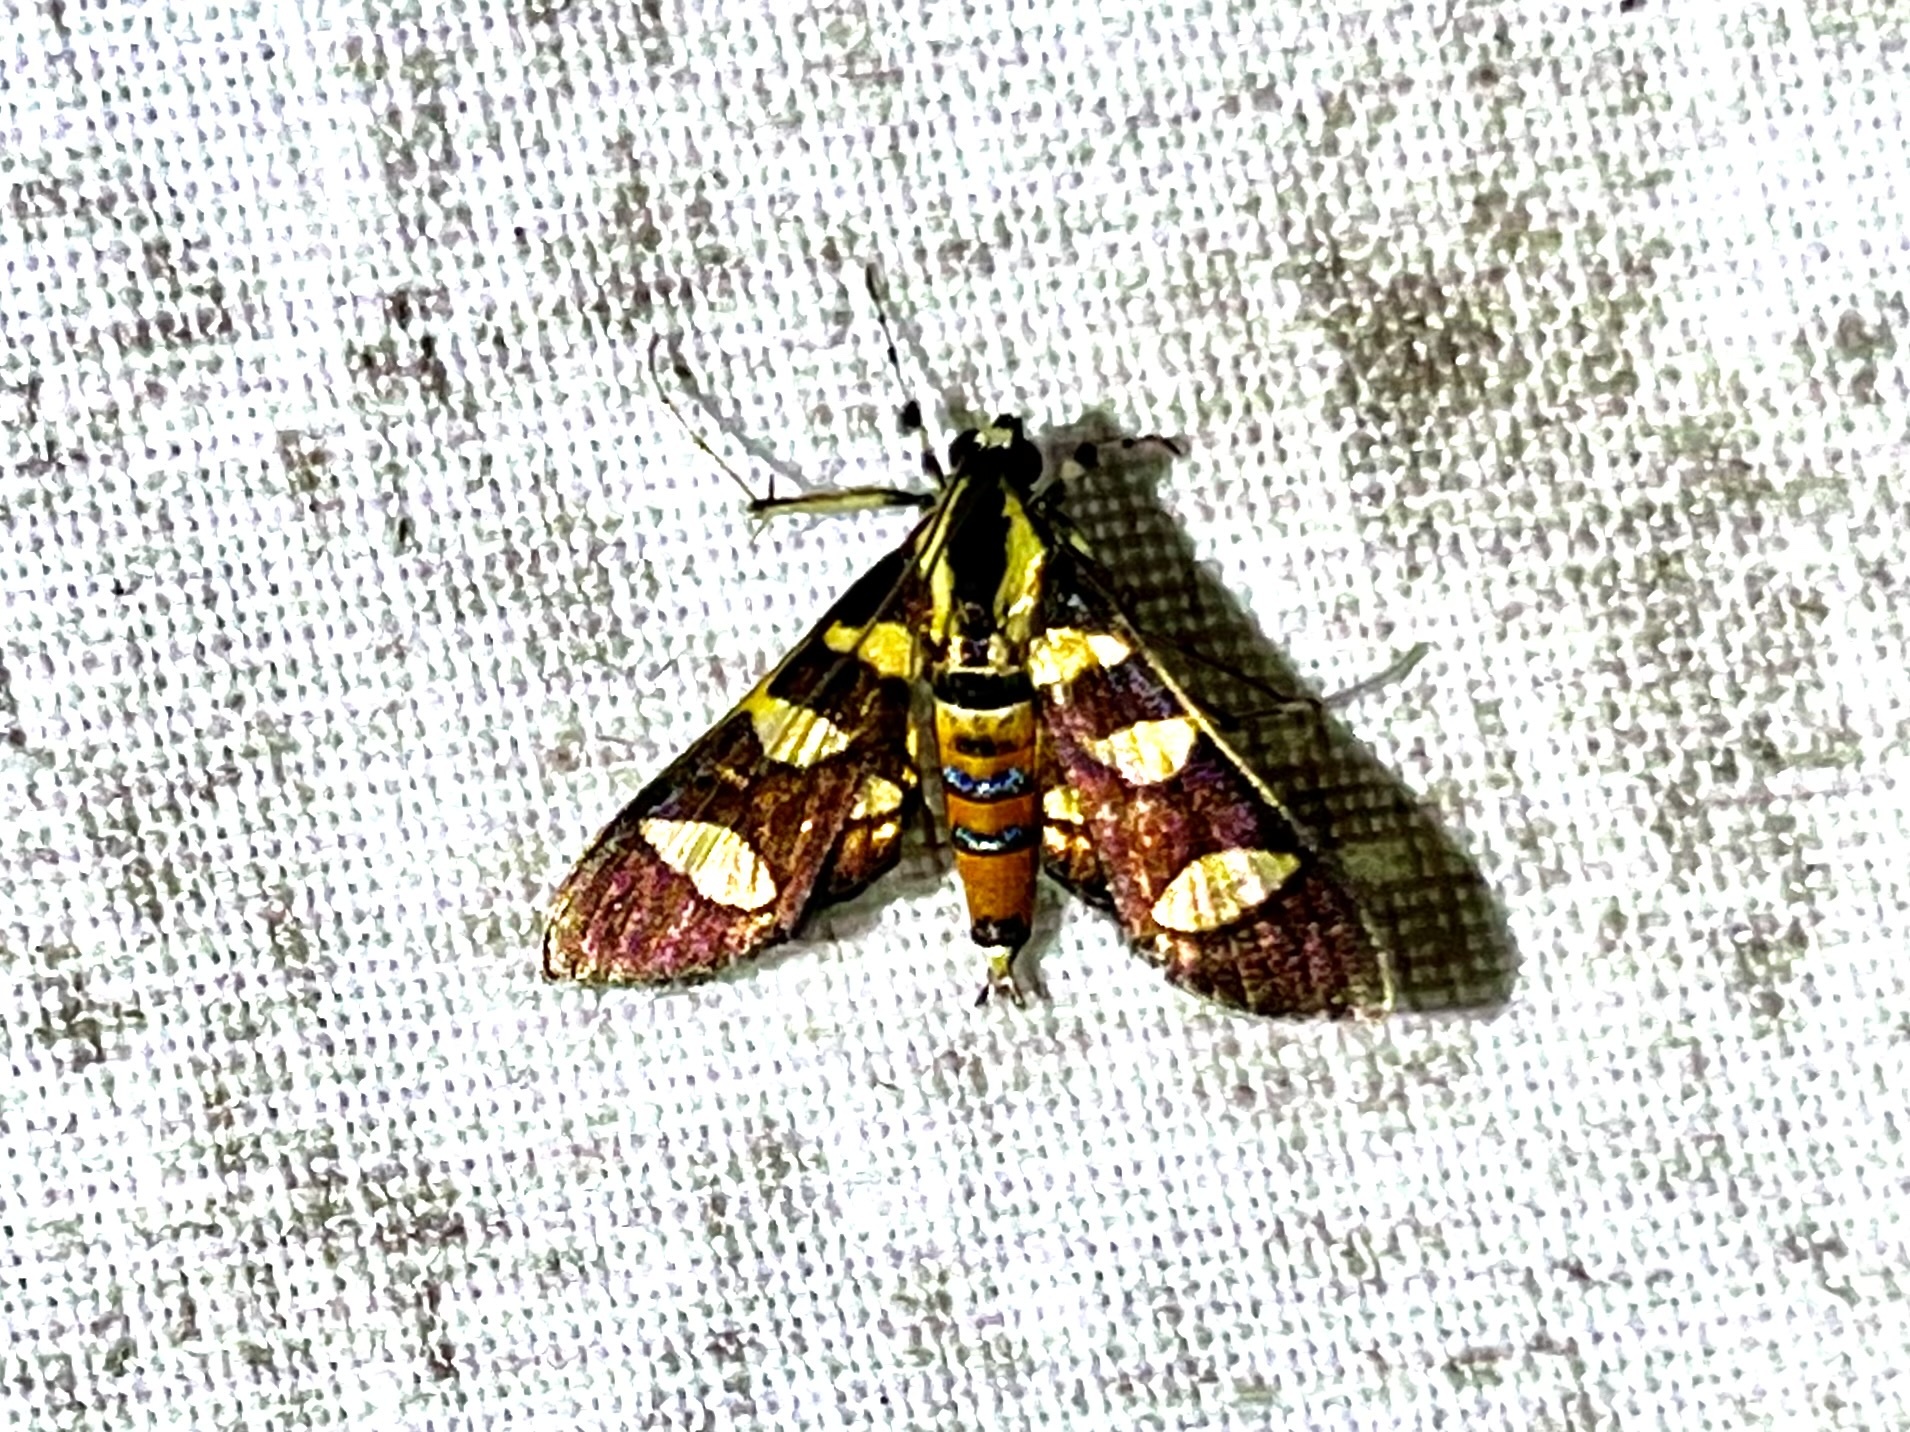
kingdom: Animalia
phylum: Arthropoda
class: Insecta
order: Lepidoptera
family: Crambidae
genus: Syngamia
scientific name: Syngamia florella
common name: Orange-spotted flower moth
